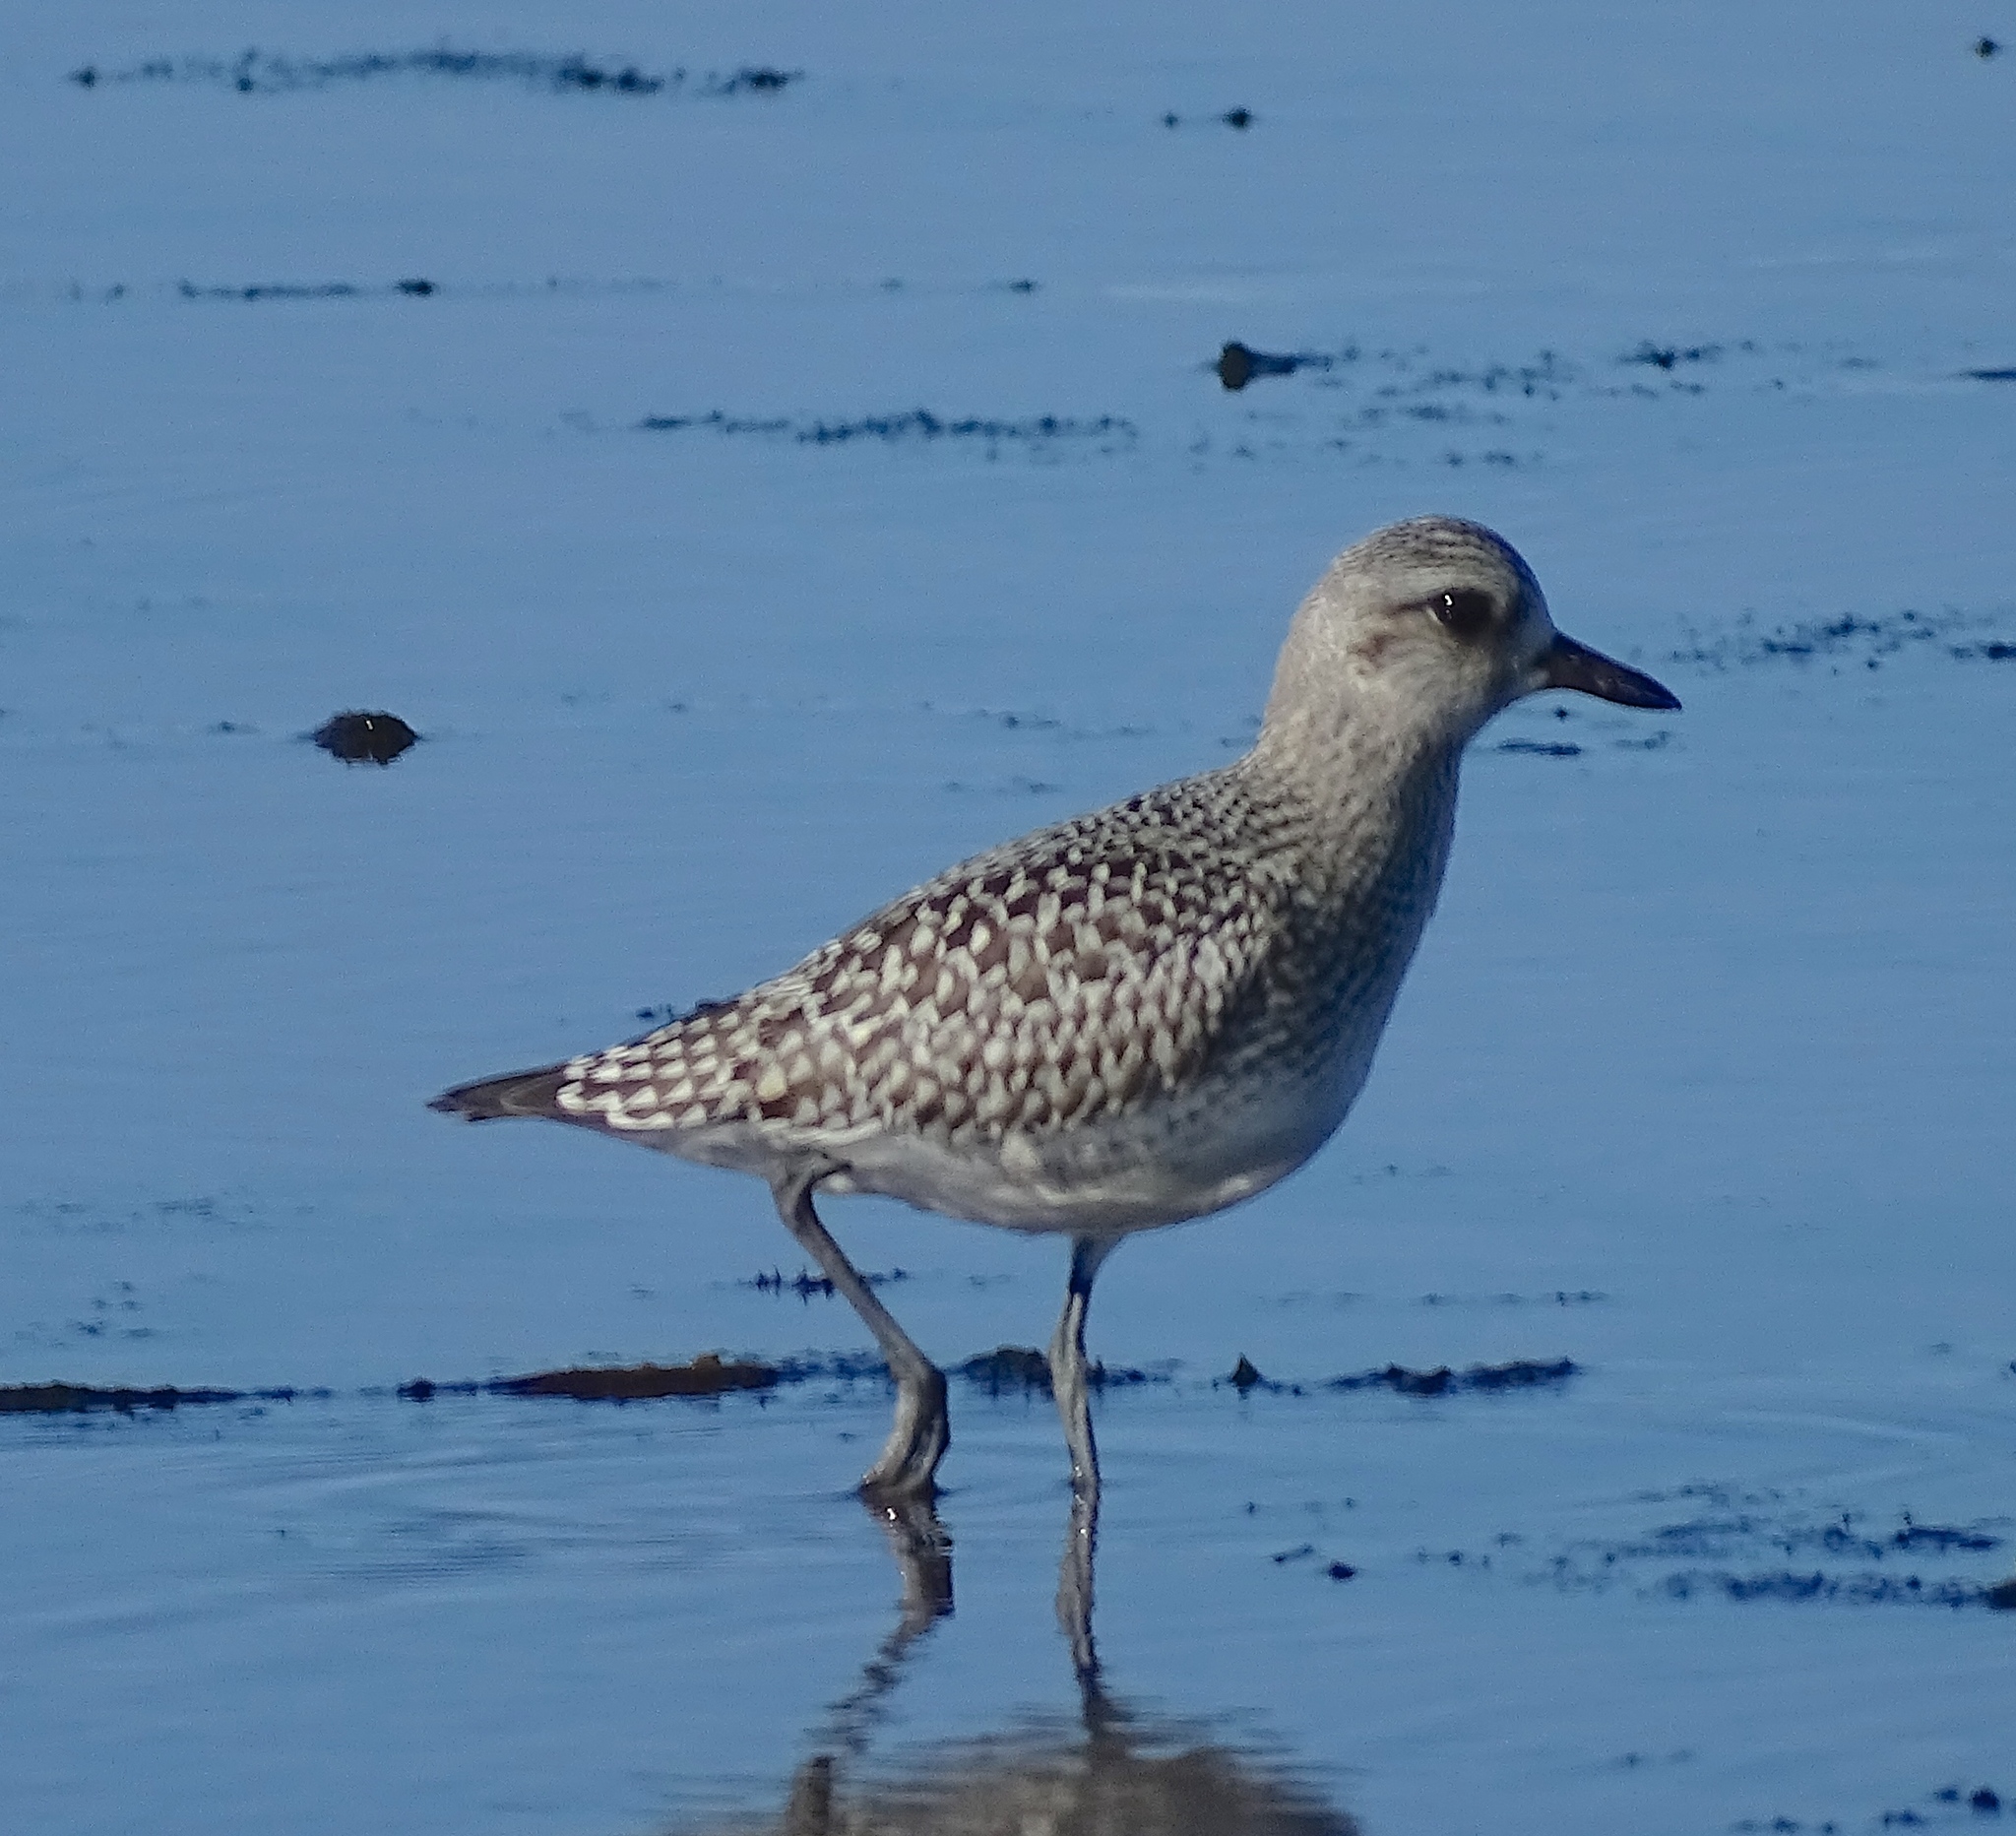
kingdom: Animalia
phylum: Chordata
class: Aves
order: Charadriiformes
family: Charadriidae
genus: Pluvialis
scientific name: Pluvialis squatarola
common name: Grey plover
